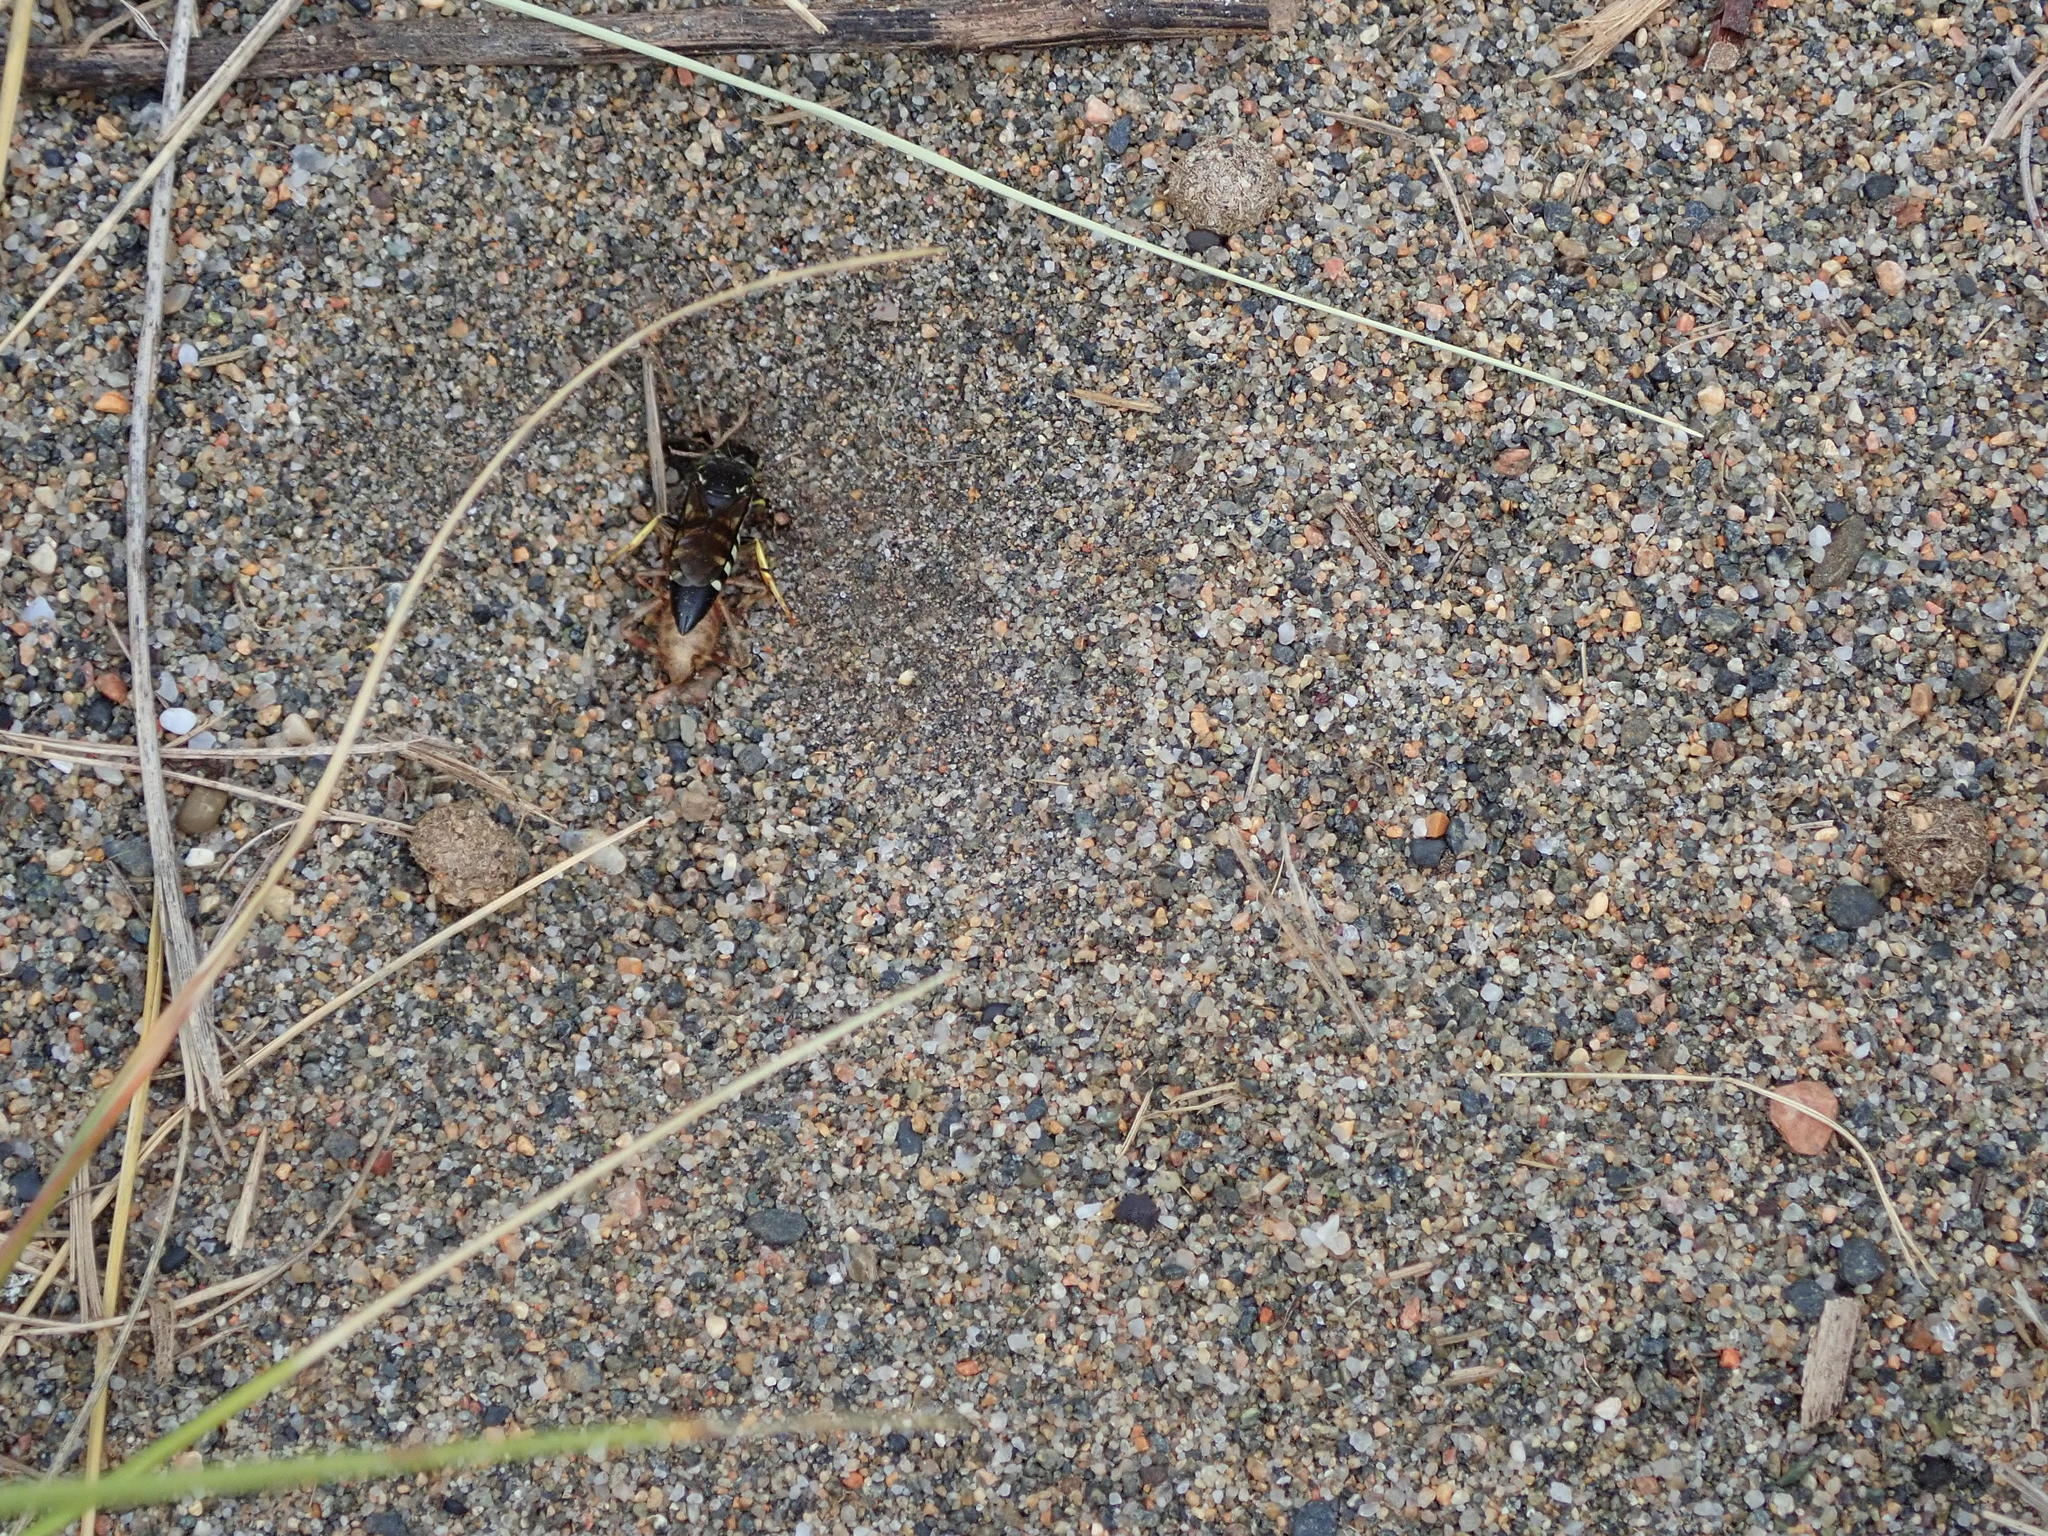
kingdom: Animalia
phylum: Arthropoda
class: Insecta
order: Hymenoptera
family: Crabronidae
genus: Bicyrtes
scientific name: Bicyrtes quadrifasciatus
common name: Four-banded stink bug hunter wasp
